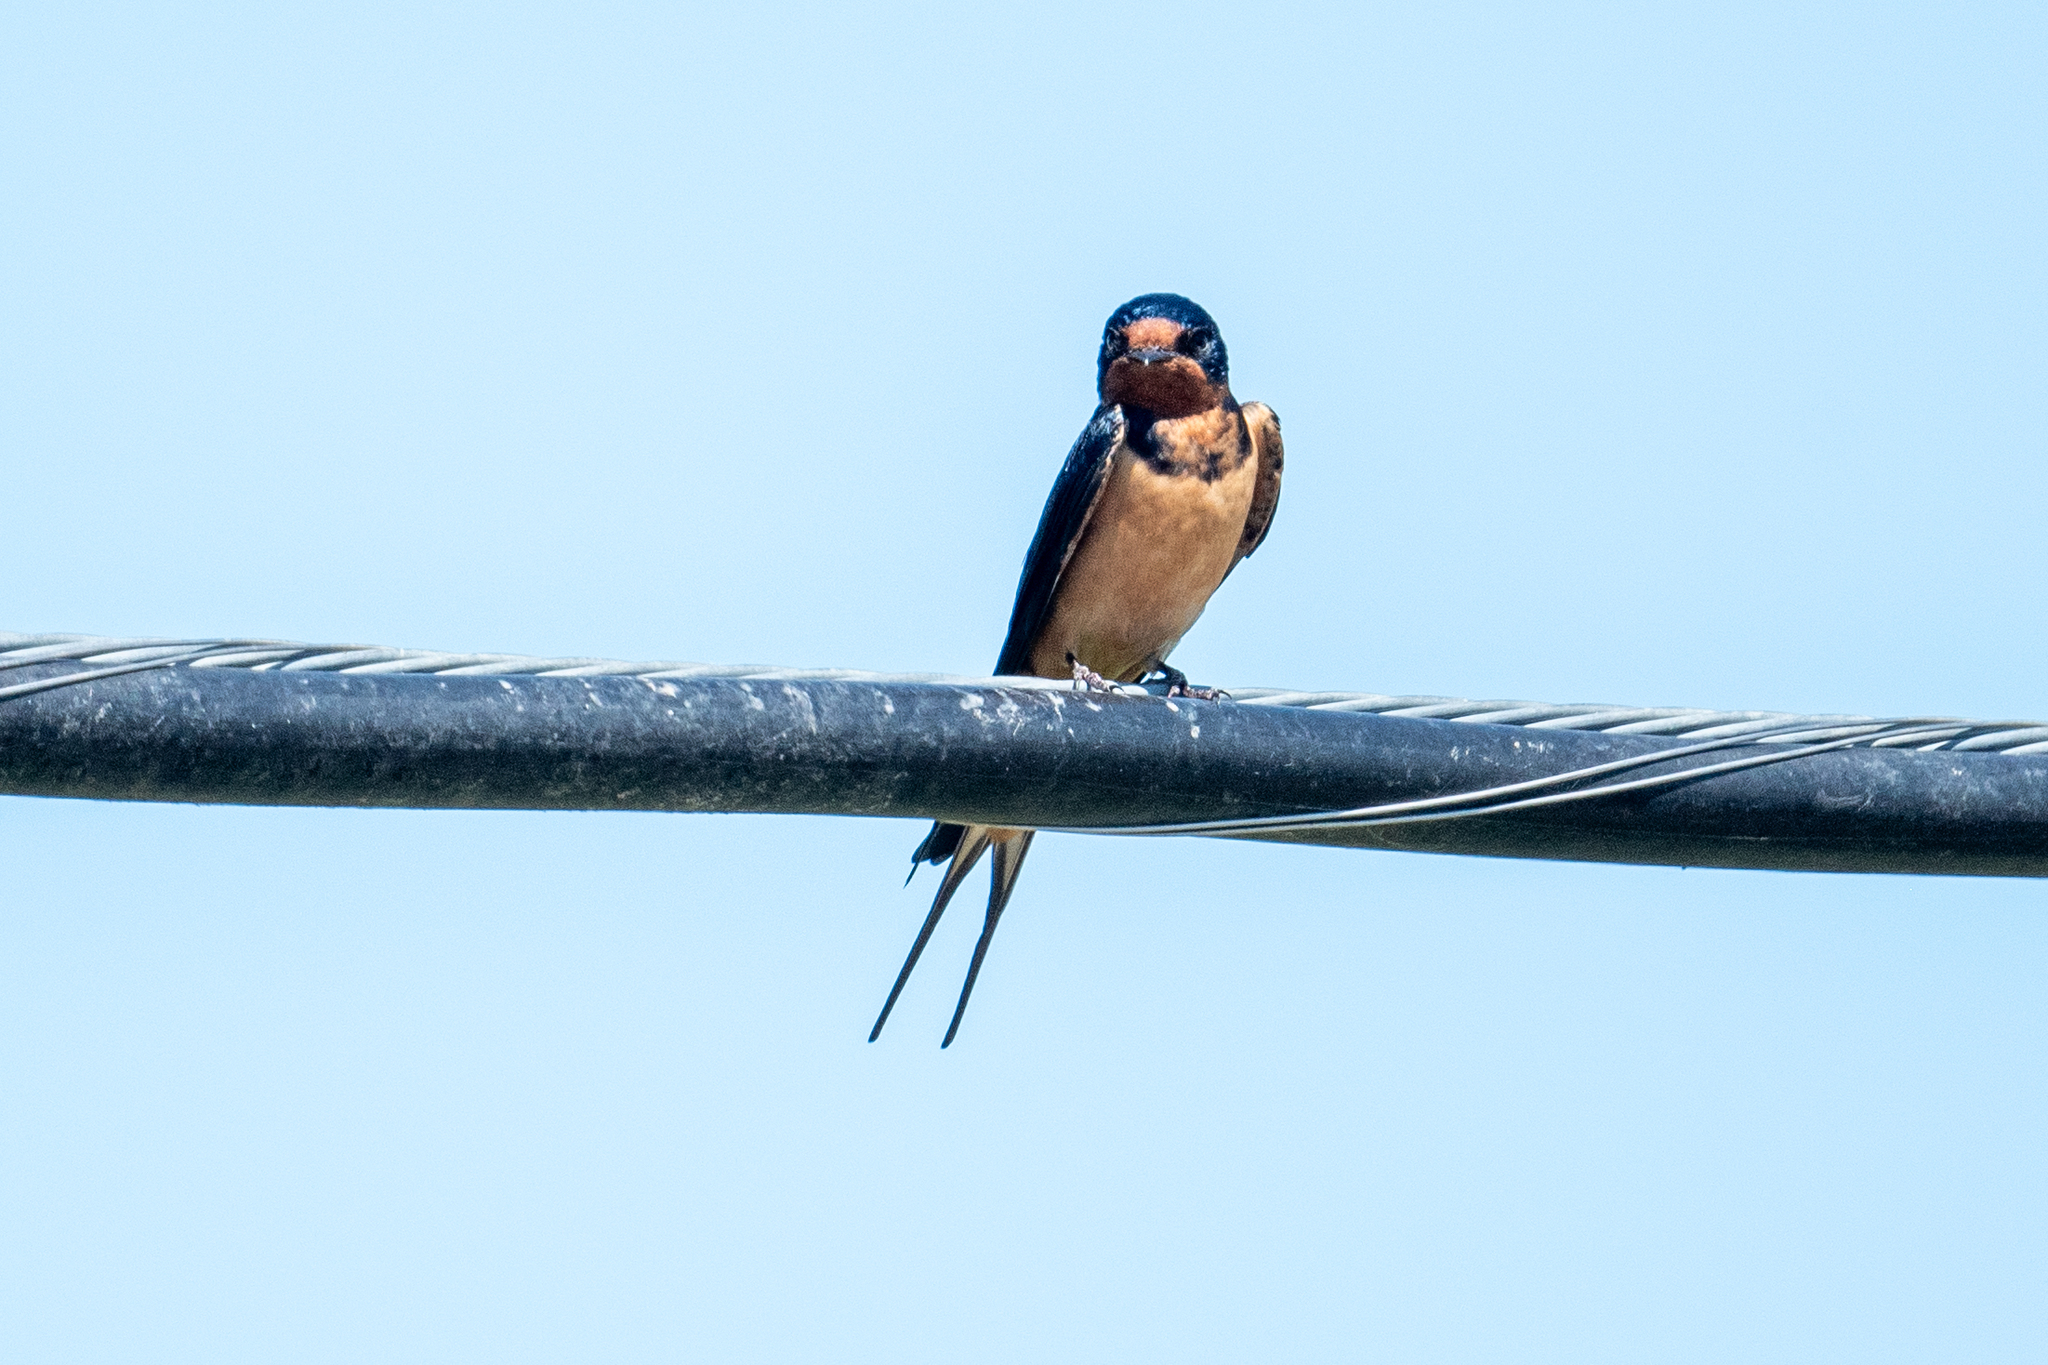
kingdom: Animalia
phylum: Chordata
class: Aves
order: Passeriformes
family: Hirundinidae
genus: Hirundo
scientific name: Hirundo rustica
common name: Barn swallow
